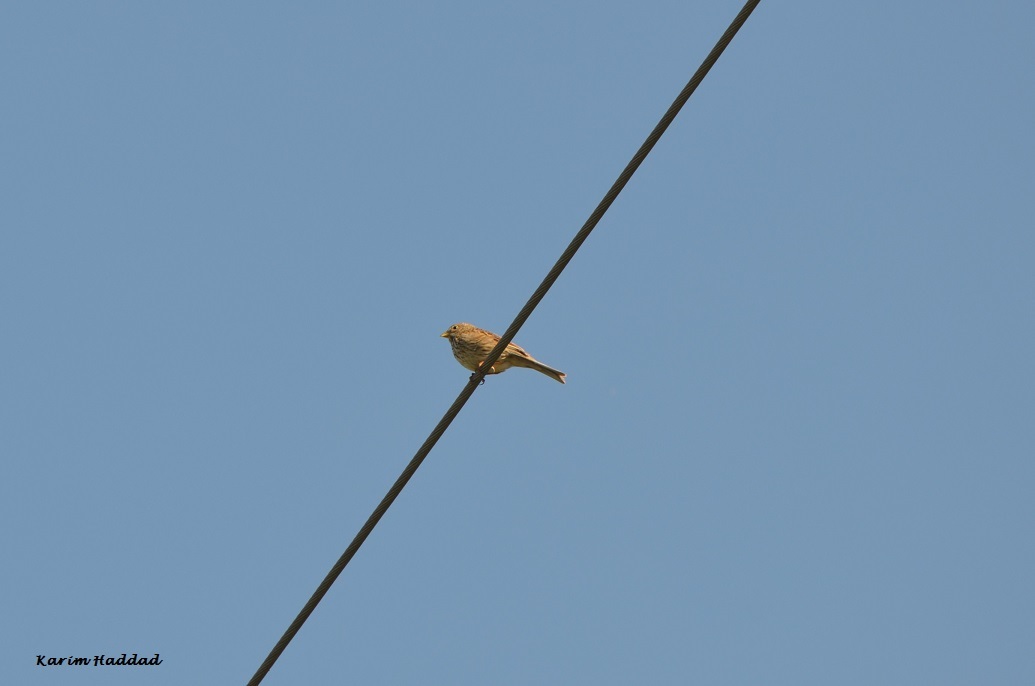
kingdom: Animalia
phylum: Chordata
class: Aves
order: Passeriformes
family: Emberizidae
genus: Emberiza
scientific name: Emberiza calandra
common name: Corn bunting
